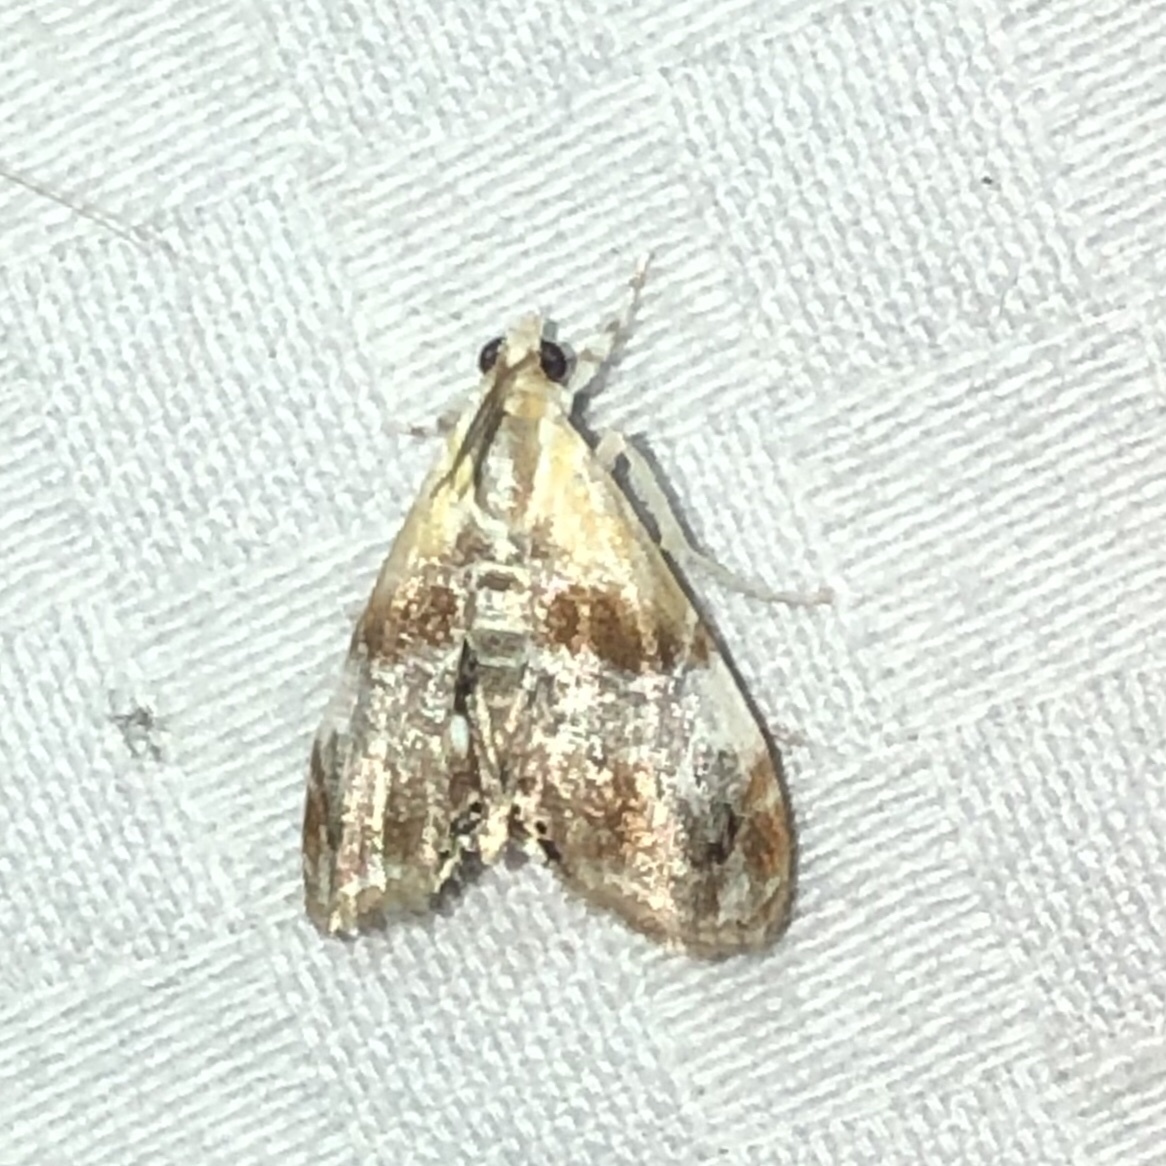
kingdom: Animalia
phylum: Arthropoda
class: Insecta
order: Lepidoptera
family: Crambidae
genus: Dicymolomia
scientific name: Dicymolomia julianalis
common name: Julia's dicymolomia moth
